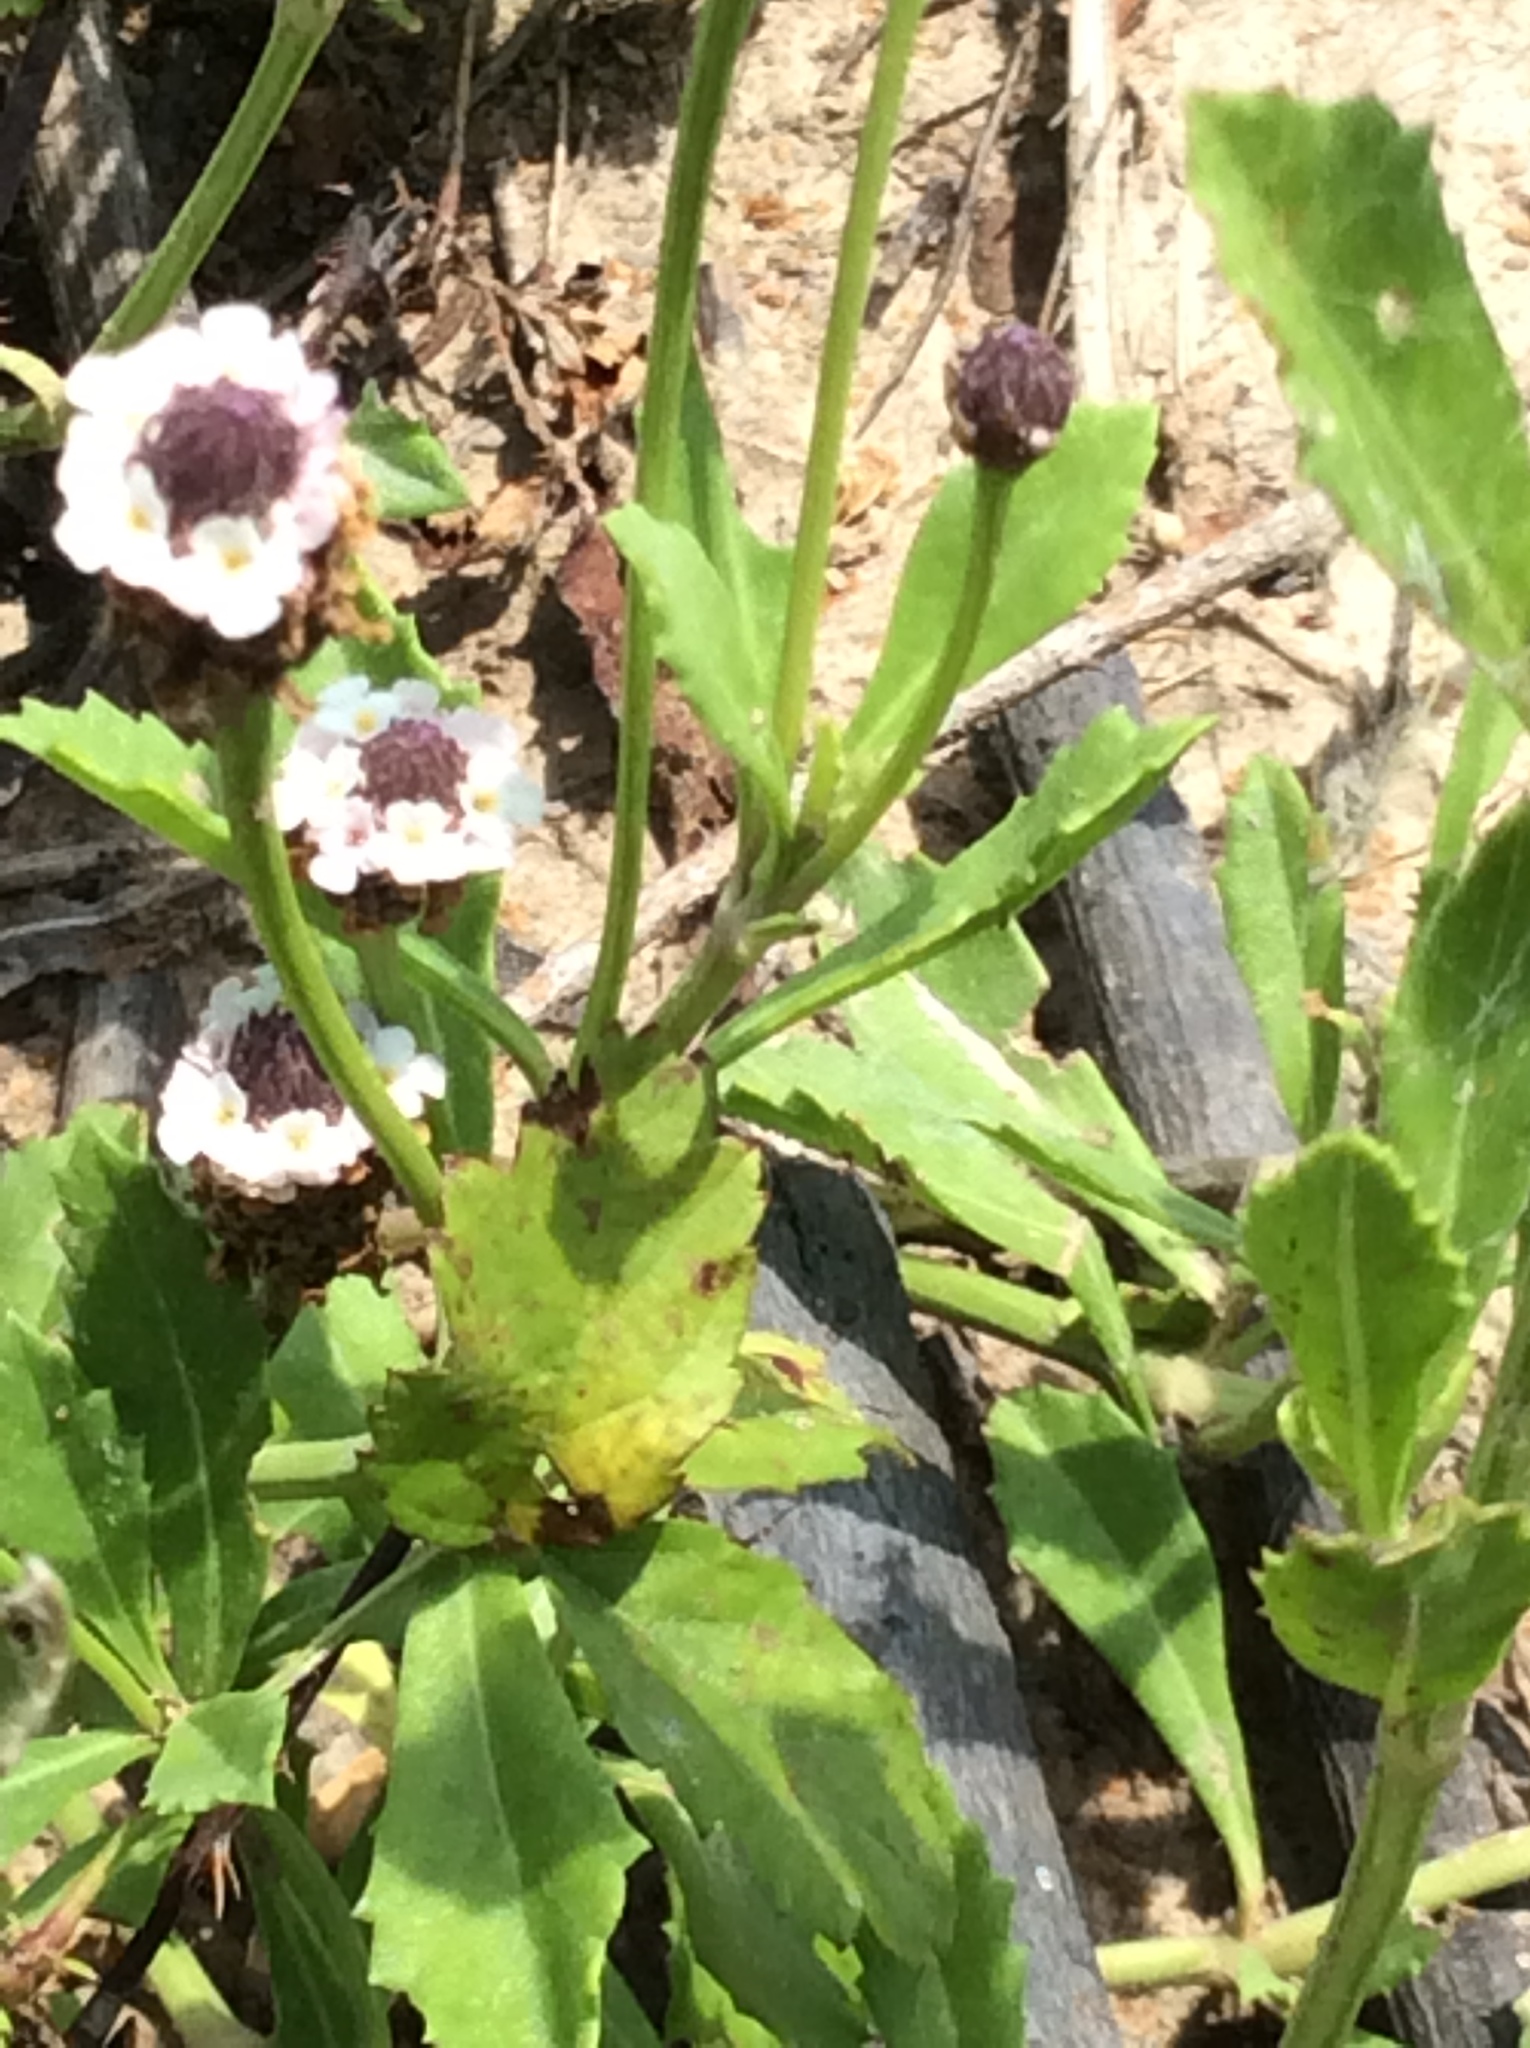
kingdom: Plantae
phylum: Tracheophyta
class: Magnoliopsida
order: Lamiales
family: Verbenaceae
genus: Phyla
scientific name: Phyla nodiflora
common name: Frogfruit
